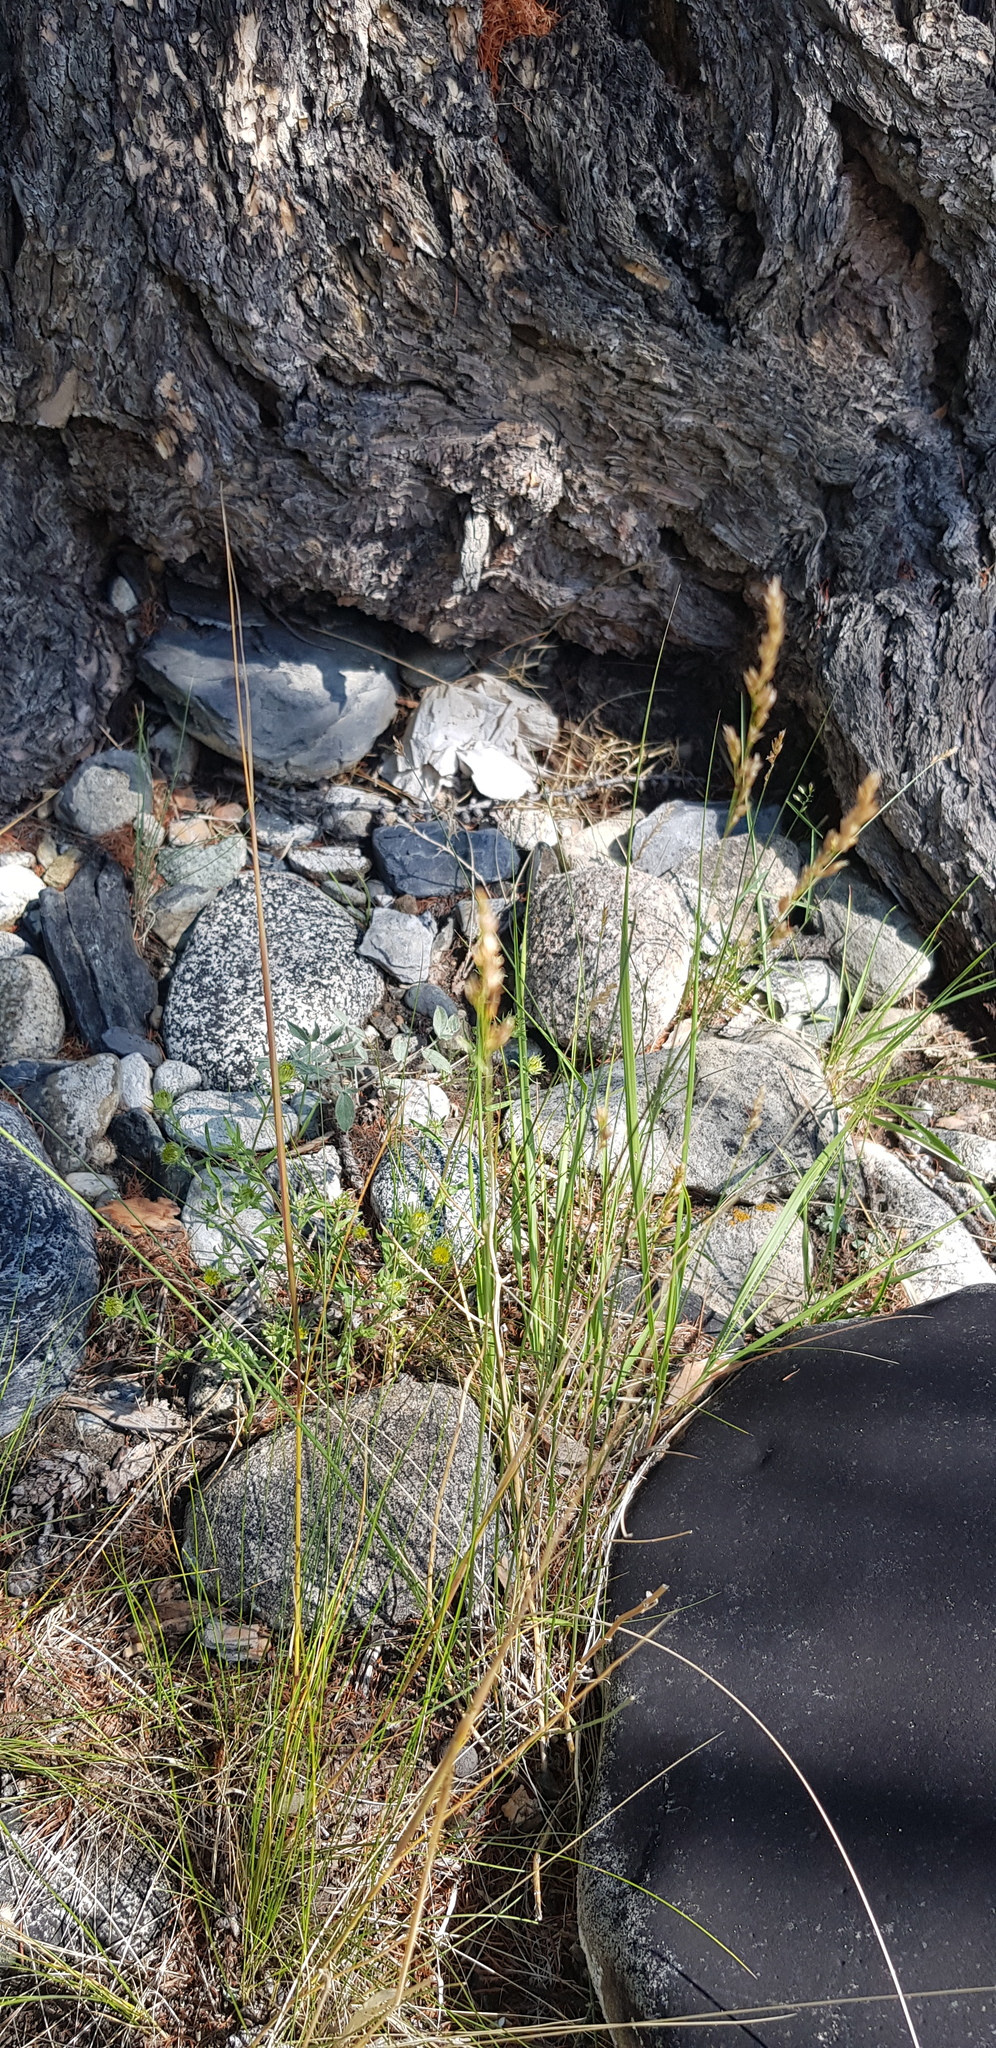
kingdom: Plantae
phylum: Tracheophyta
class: Liliopsida
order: Poales
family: Poaceae
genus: Festuca
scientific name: Festuca rubra
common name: Red fescue
